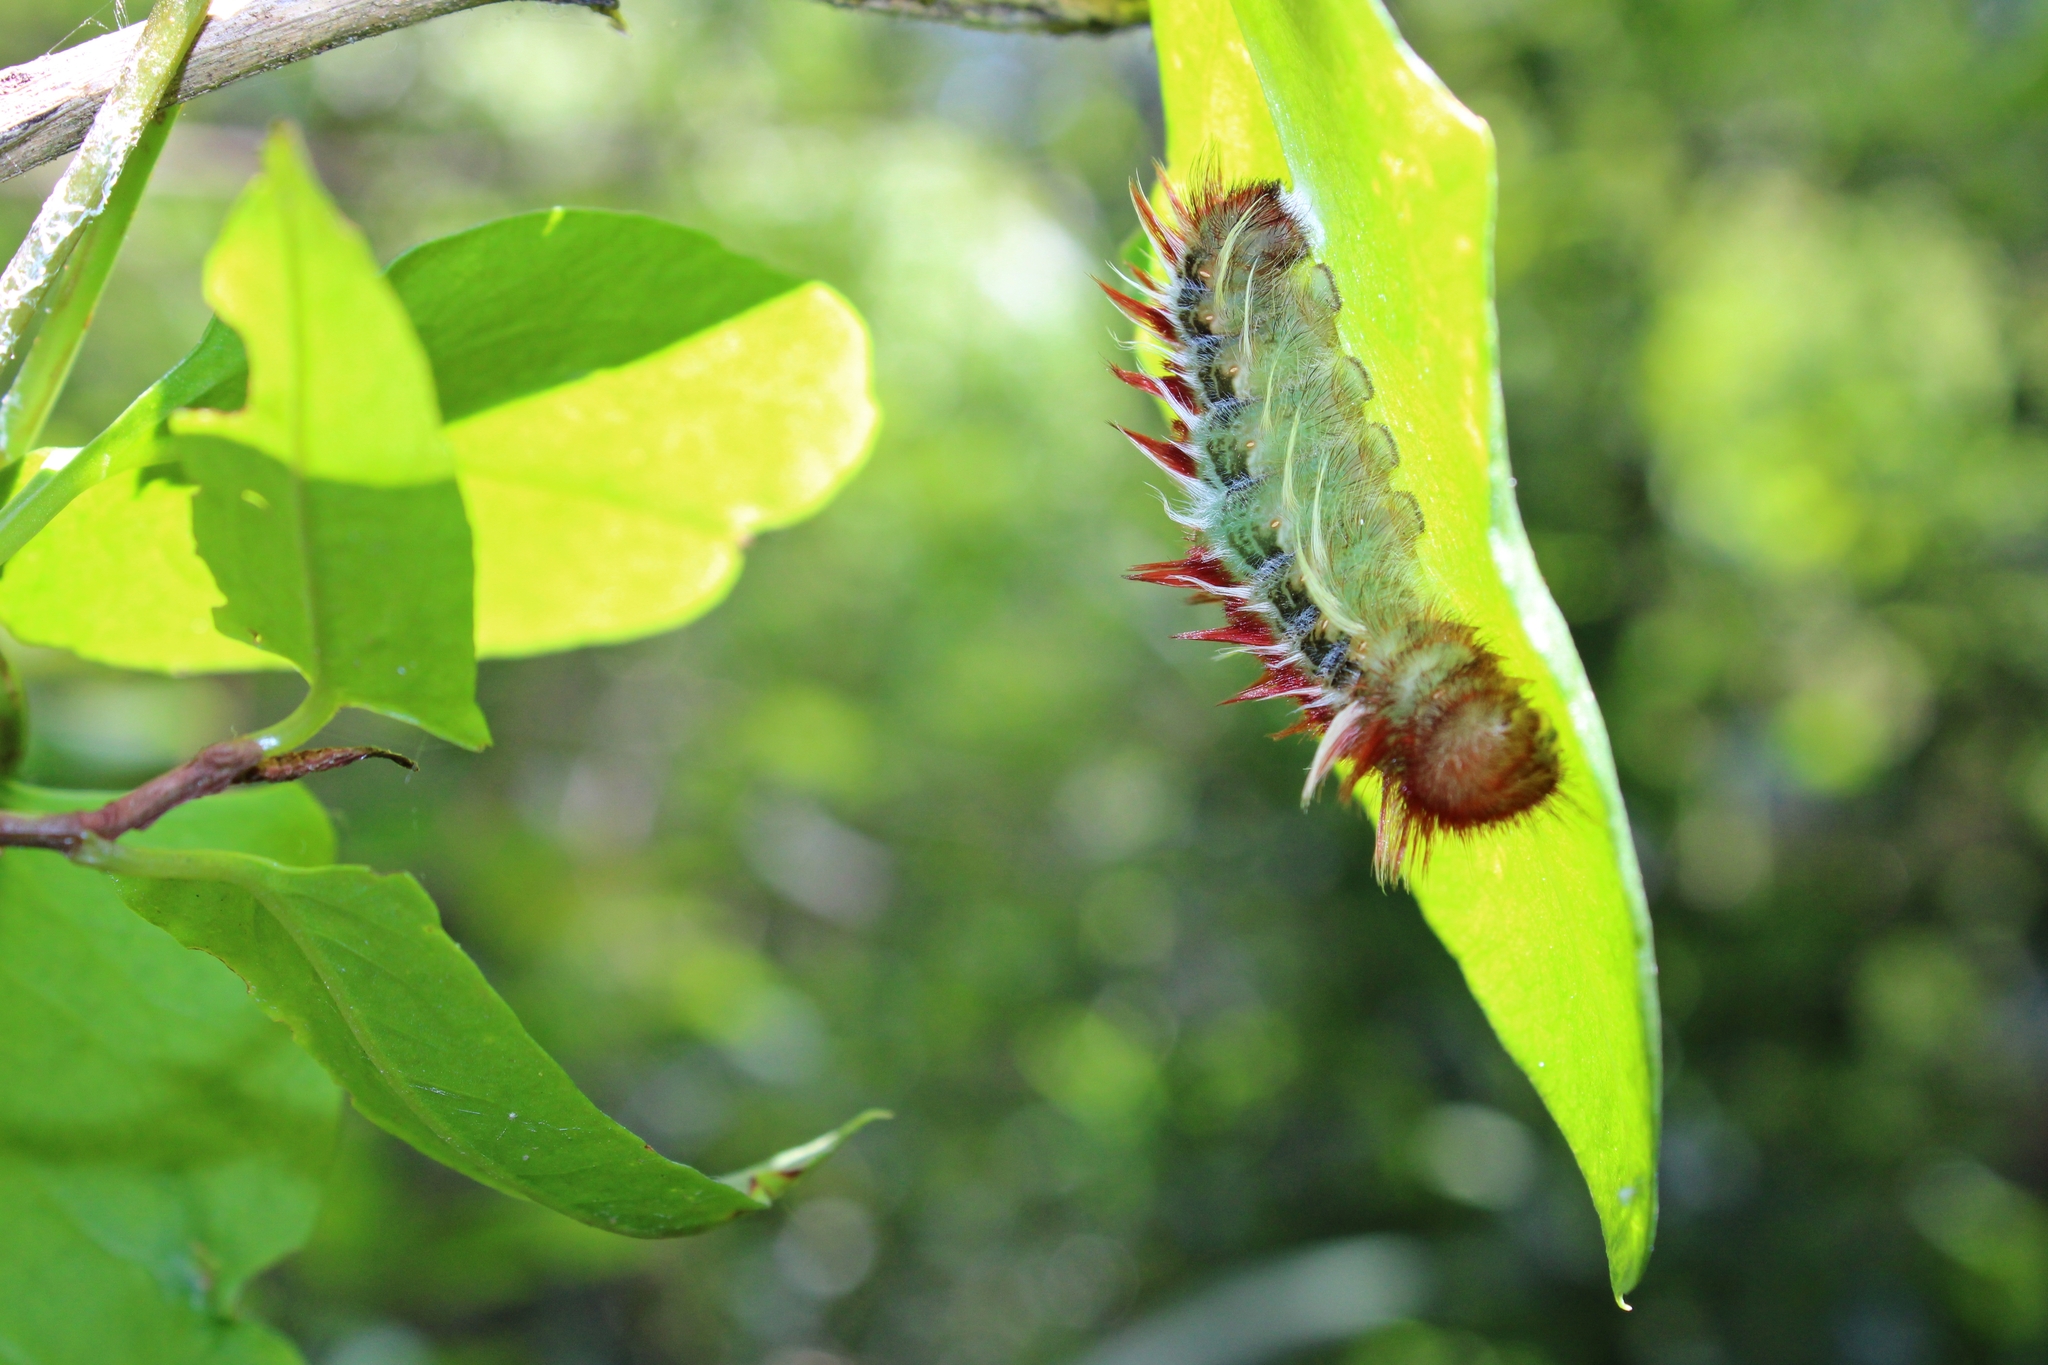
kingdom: Animalia
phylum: Arthropoda
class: Insecta
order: Lepidoptera
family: Nymphalidae
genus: Morpho
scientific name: Morpho epistrophus
